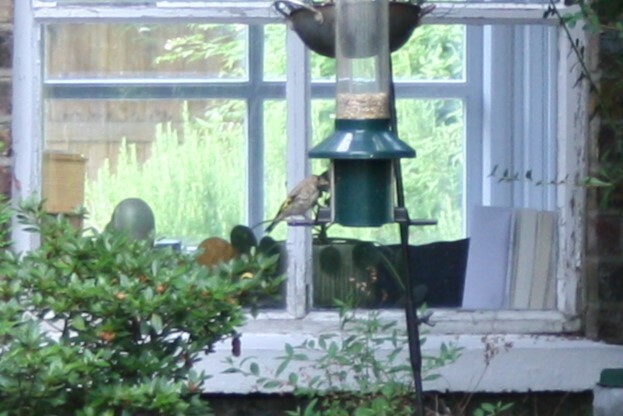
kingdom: Animalia
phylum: Chordata
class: Aves
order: Passeriformes
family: Fringillidae
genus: Carduelis
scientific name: Carduelis carduelis
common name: European goldfinch
